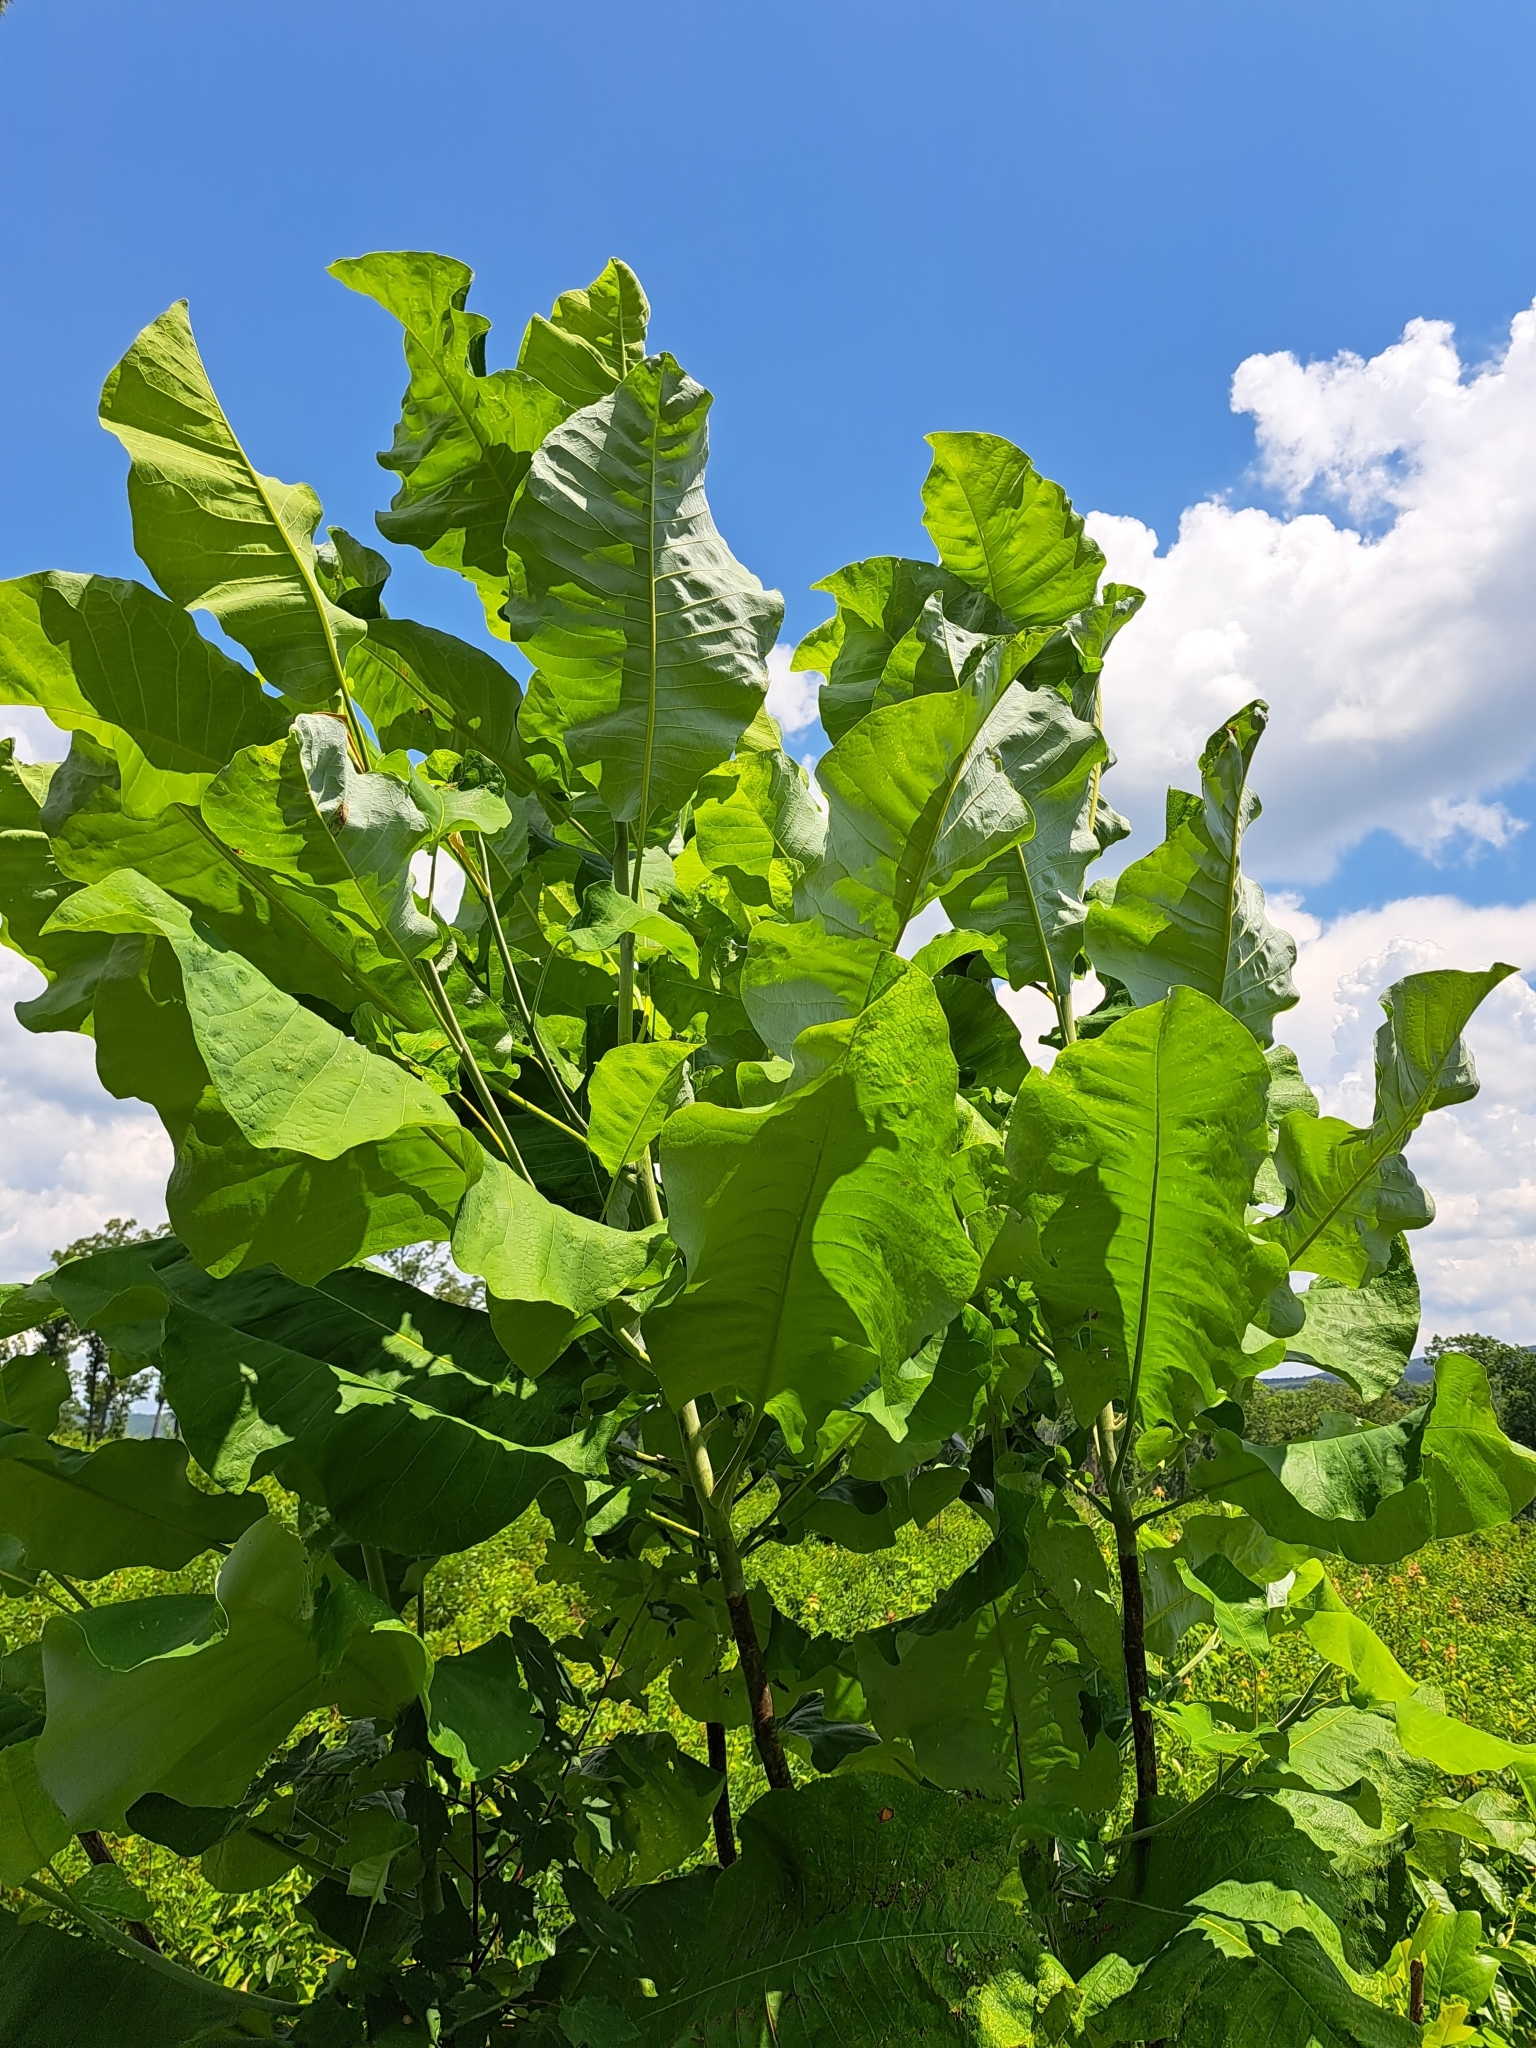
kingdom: Plantae
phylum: Tracheophyta
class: Magnoliopsida
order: Magnoliales
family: Magnoliaceae
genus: Magnolia
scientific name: Magnolia macrophylla
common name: Big-leaf magnolia
